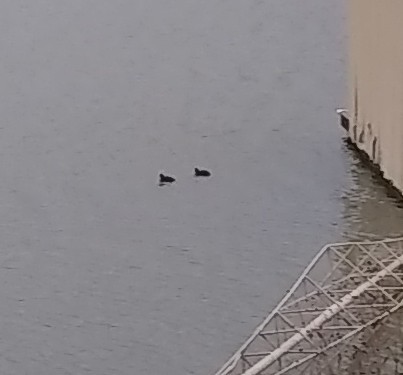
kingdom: Animalia
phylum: Chordata
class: Aves
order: Gruiformes
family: Rallidae
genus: Fulica
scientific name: Fulica americana
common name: American coot
